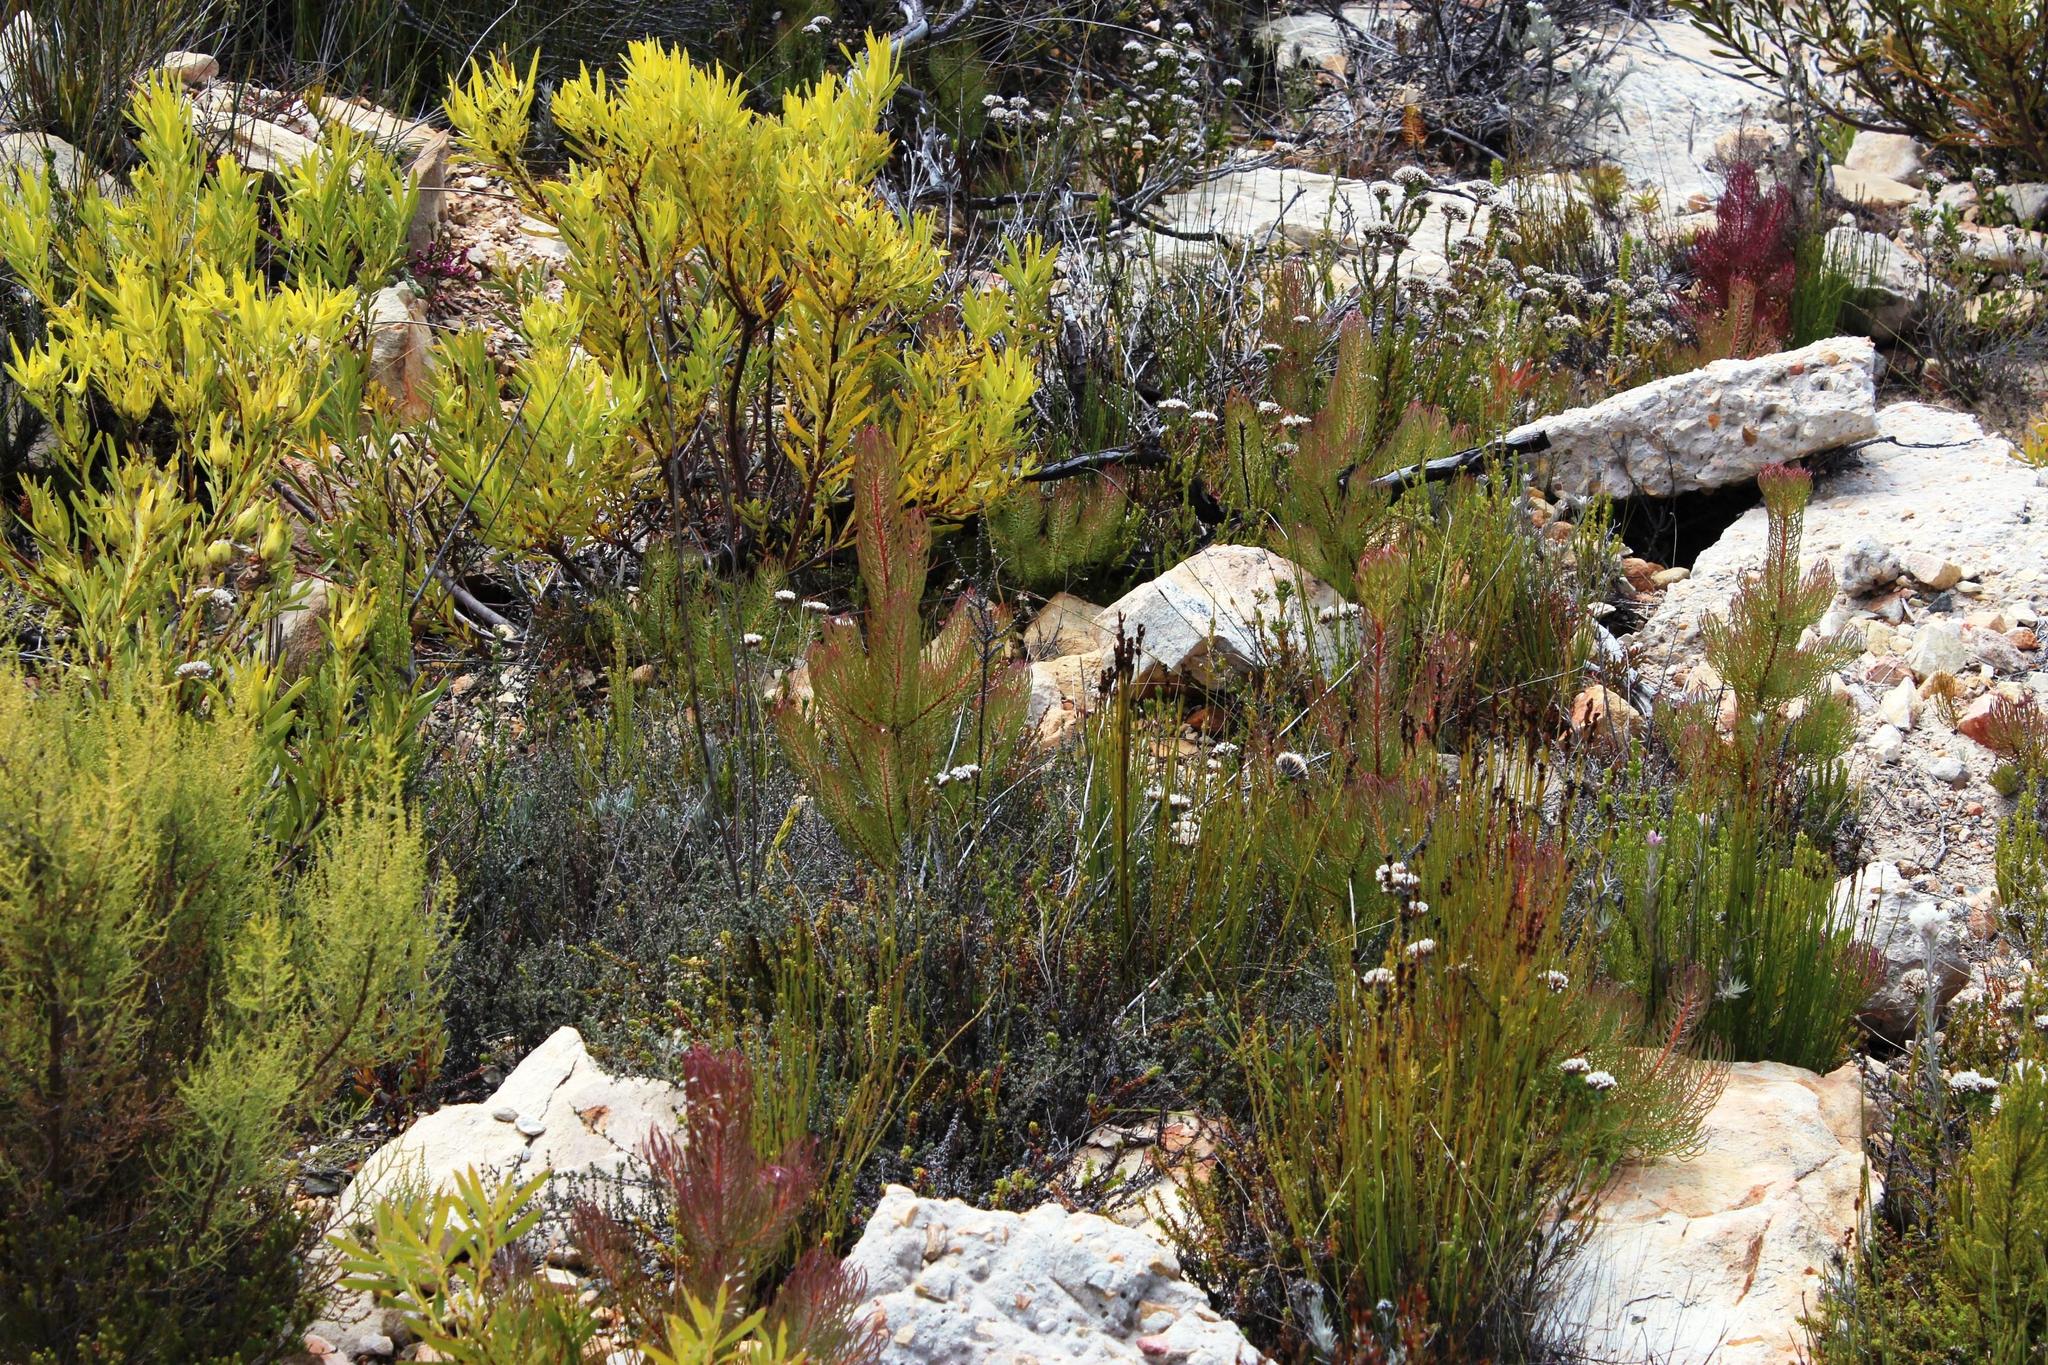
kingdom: Plantae
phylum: Tracheophyta
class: Magnoliopsida
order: Proteales
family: Proteaceae
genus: Leucadendron
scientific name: Leucadendron comosum
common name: Ridge-cone conebush
